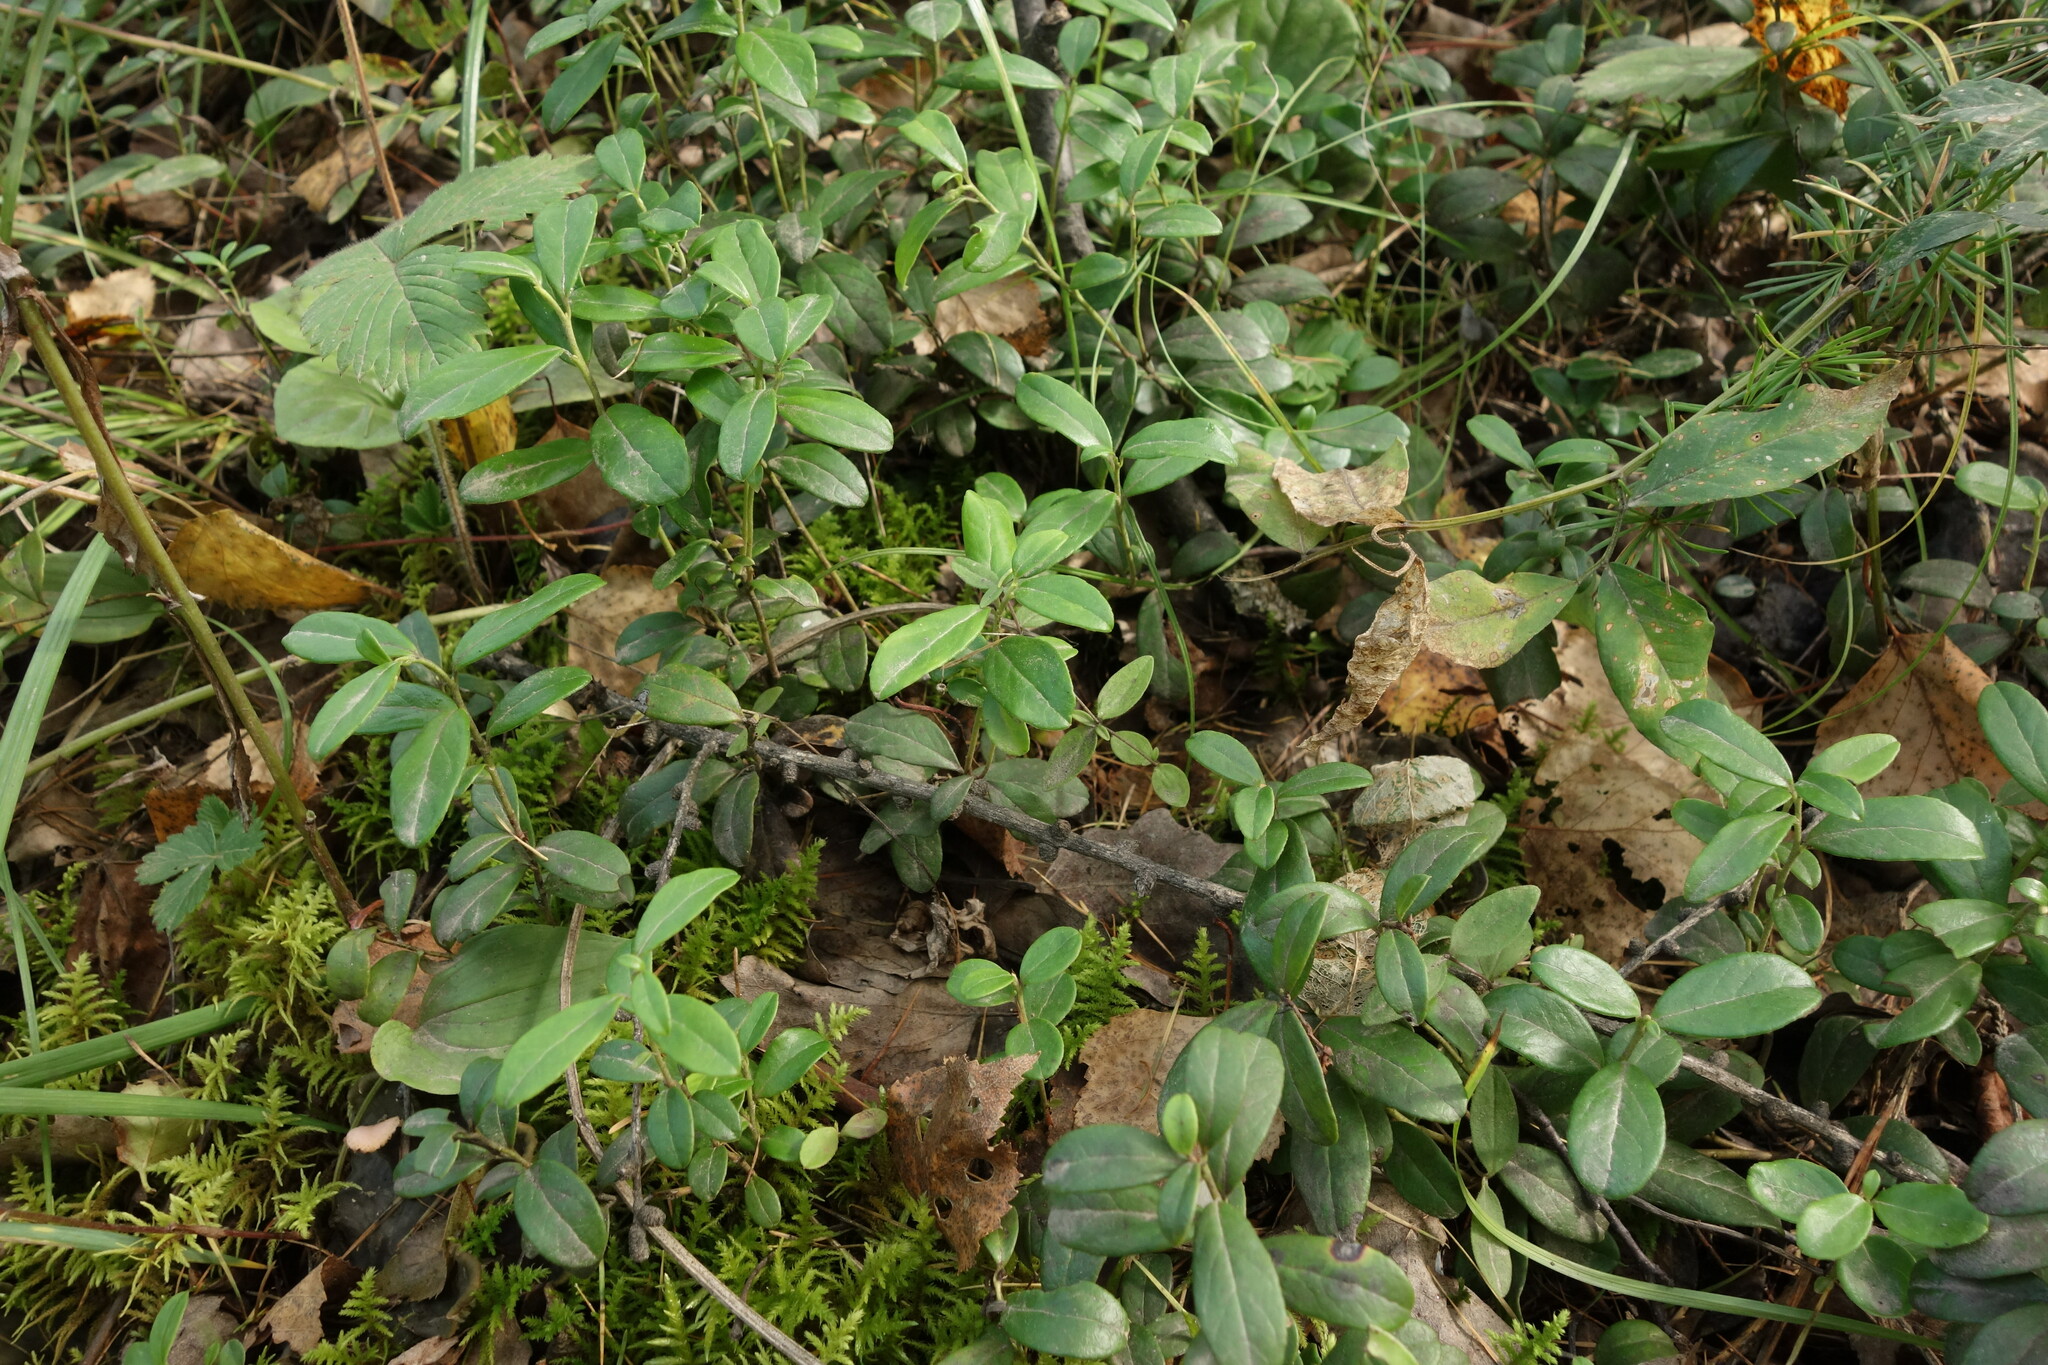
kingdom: Plantae
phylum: Tracheophyta
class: Magnoliopsida
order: Ericales
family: Ericaceae
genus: Vaccinium
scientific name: Vaccinium vitis-idaea
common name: Cowberry
